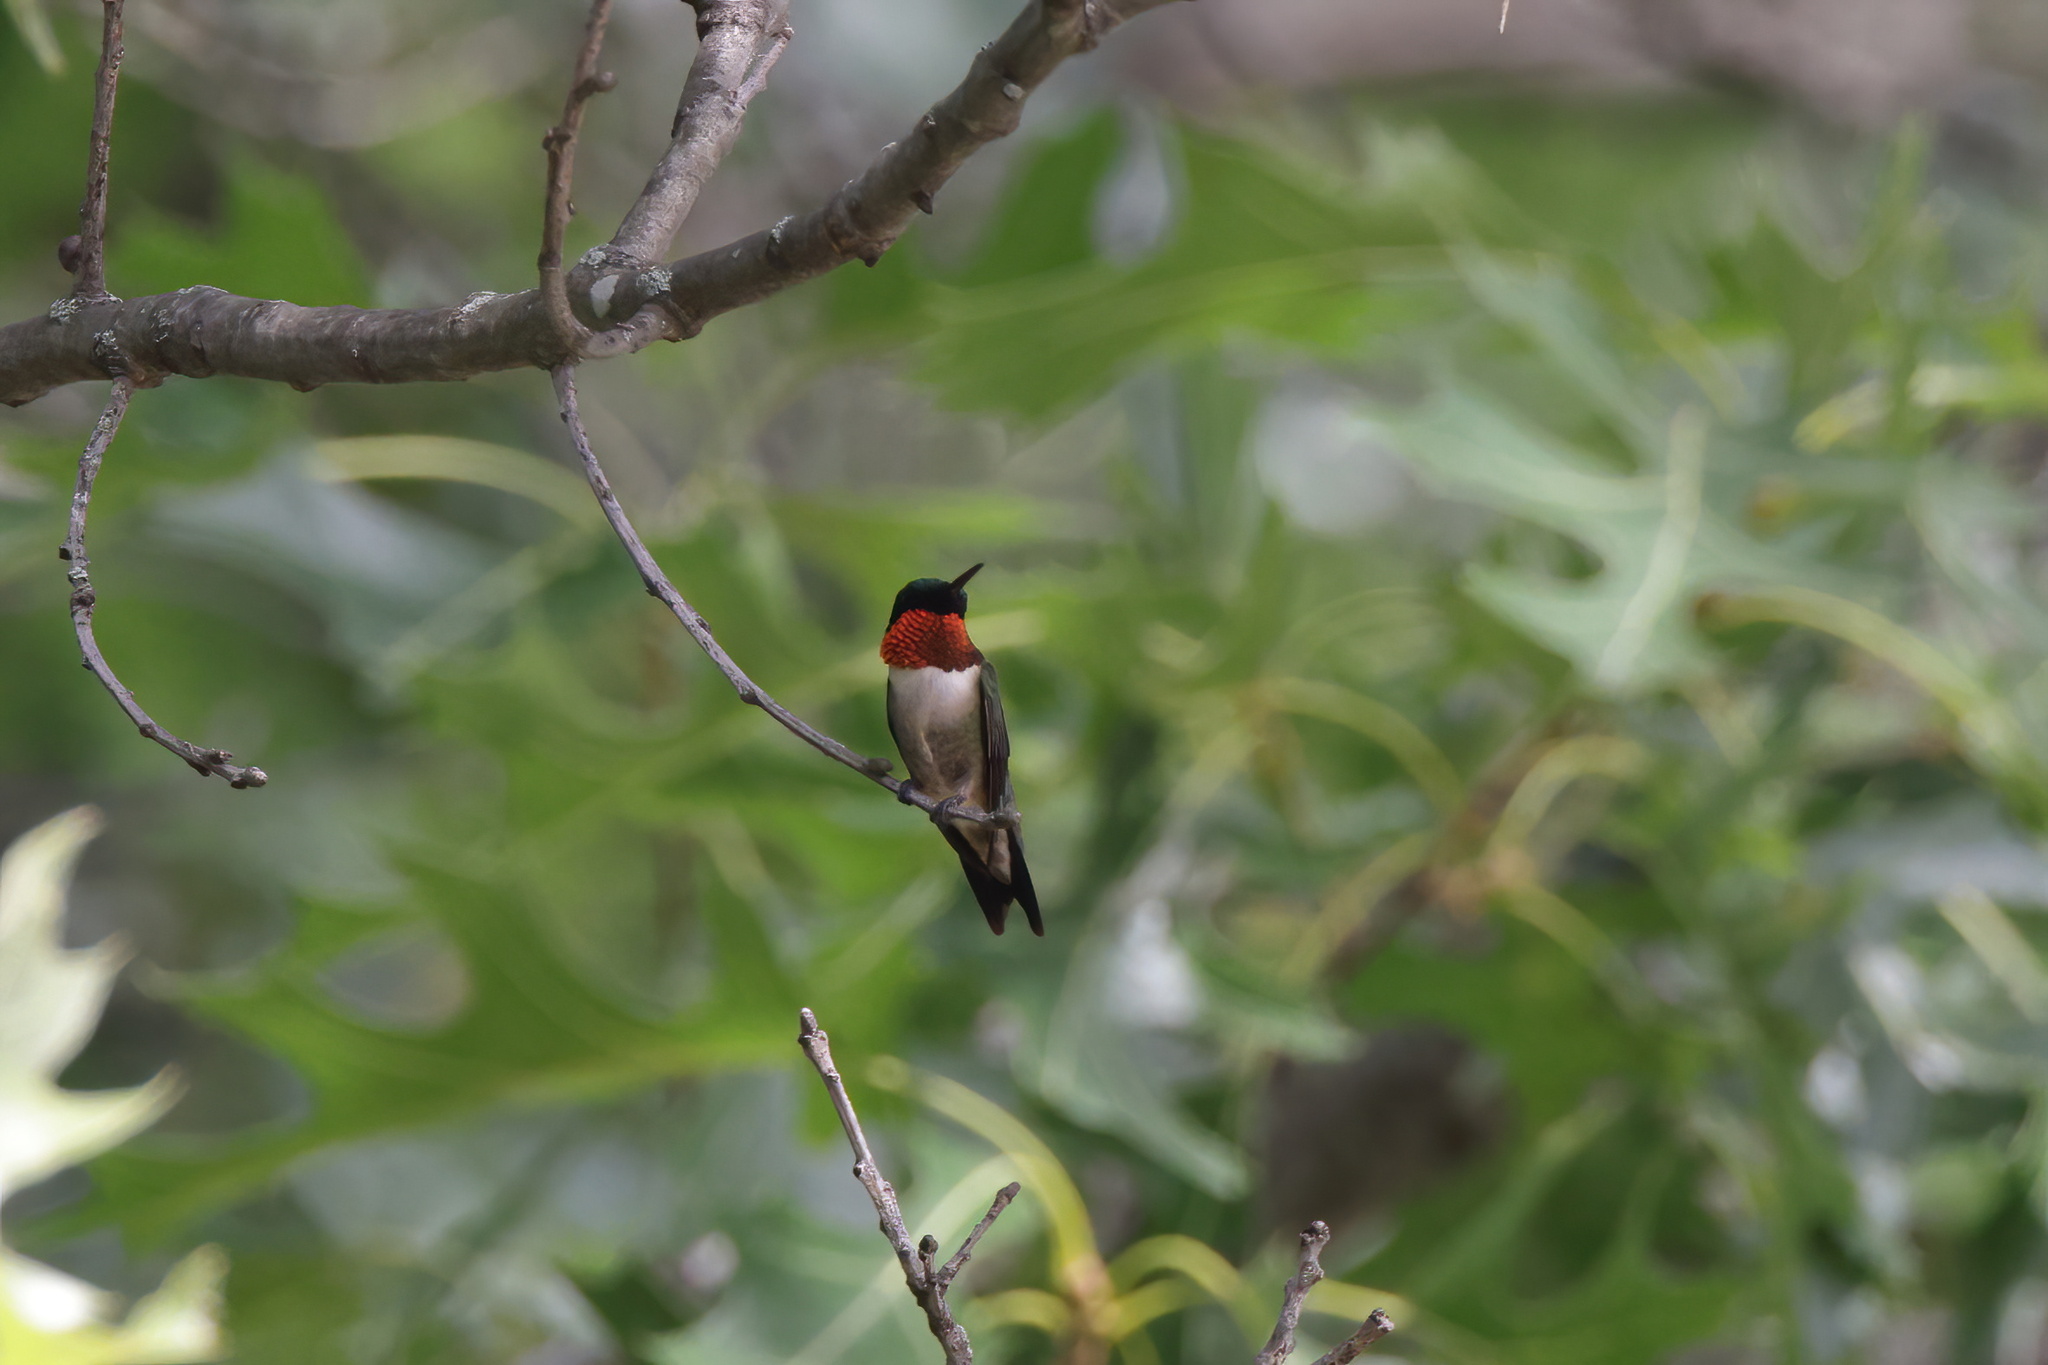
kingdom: Animalia
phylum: Chordata
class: Aves
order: Apodiformes
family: Trochilidae
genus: Archilochus
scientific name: Archilochus colubris
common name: Ruby-throated hummingbird
